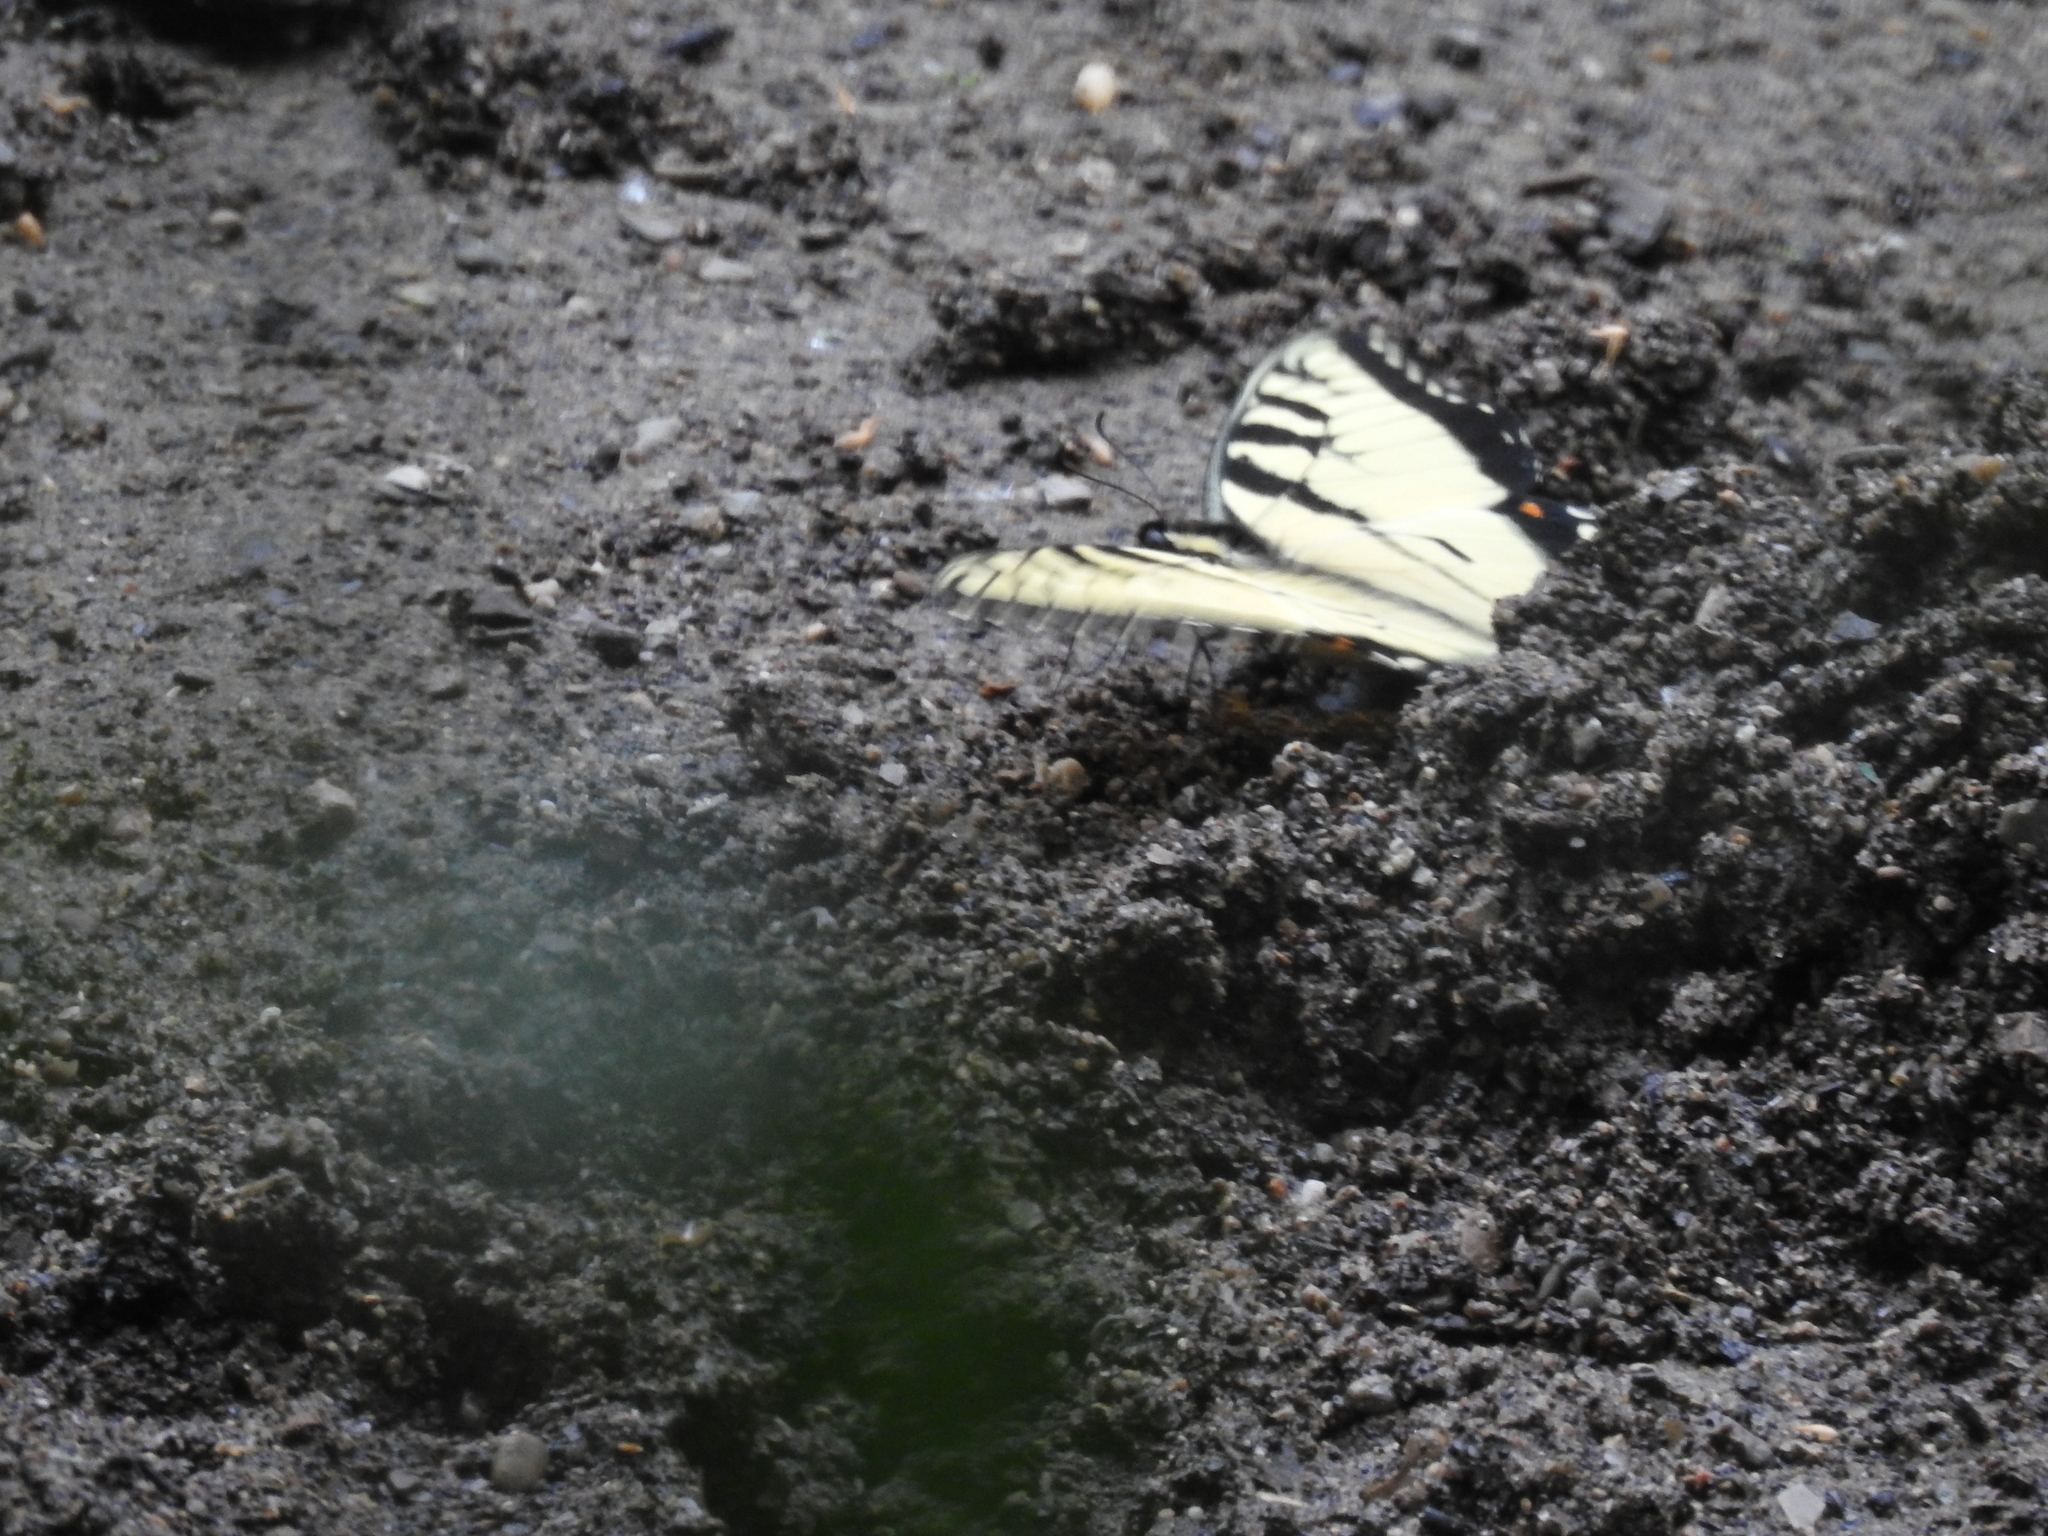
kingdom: Animalia
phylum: Arthropoda
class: Insecta
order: Lepidoptera
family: Papilionidae
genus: Papilio
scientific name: Papilio glaucus
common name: Tiger swallowtail
